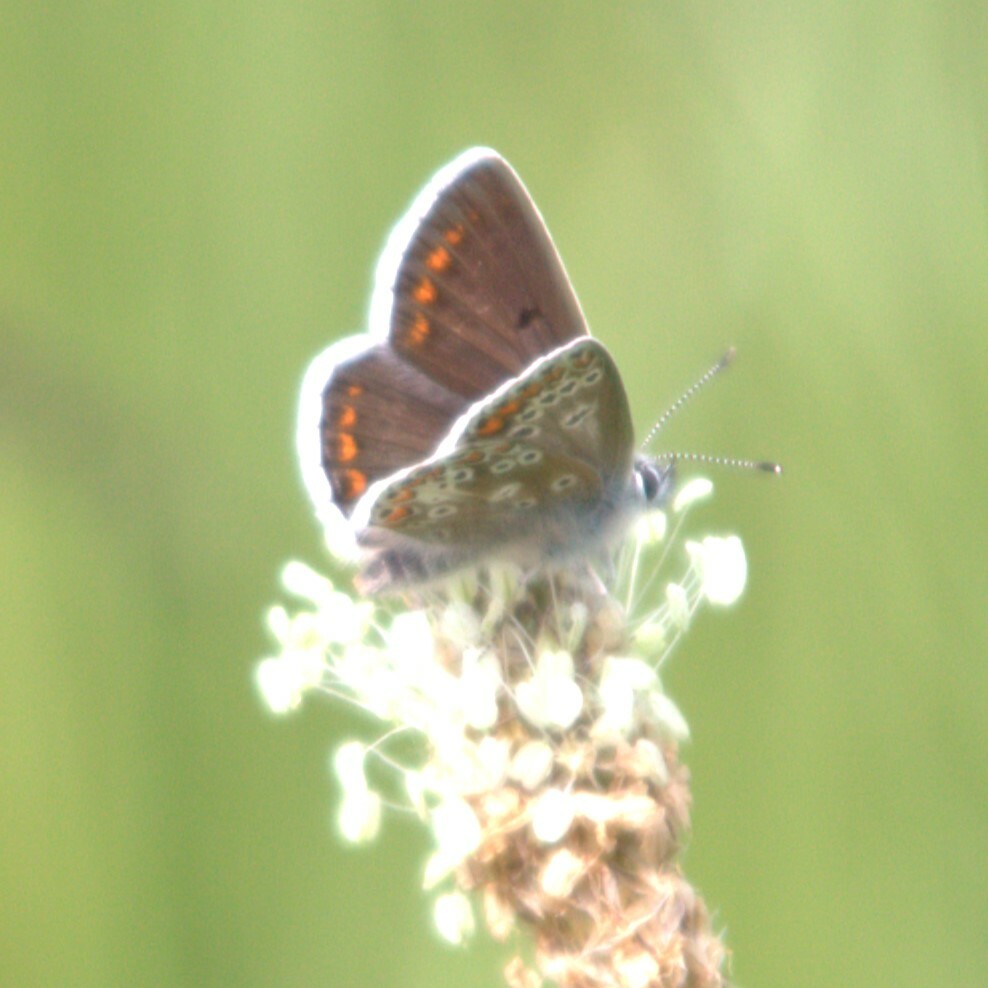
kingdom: Animalia
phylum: Arthropoda
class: Insecta
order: Lepidoptera
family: Lycaenidae
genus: Aricia
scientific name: Aricia agestis
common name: Brown argus
